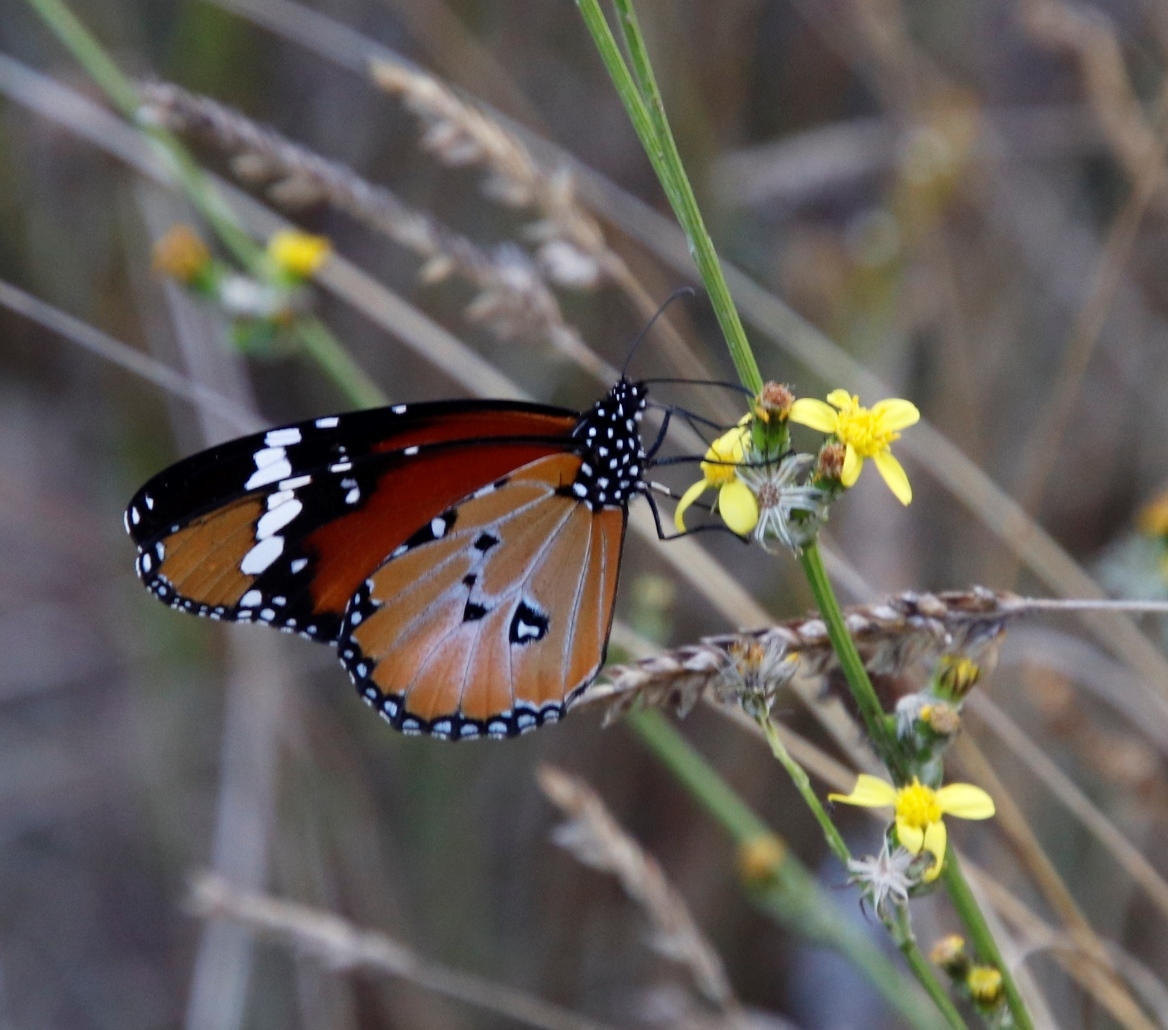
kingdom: Animalia
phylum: Arthropoda
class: Insecta
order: Lepidoptera
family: Nymphalidae
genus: Danaus
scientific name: Danaus chrysippus
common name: Plain tiger
